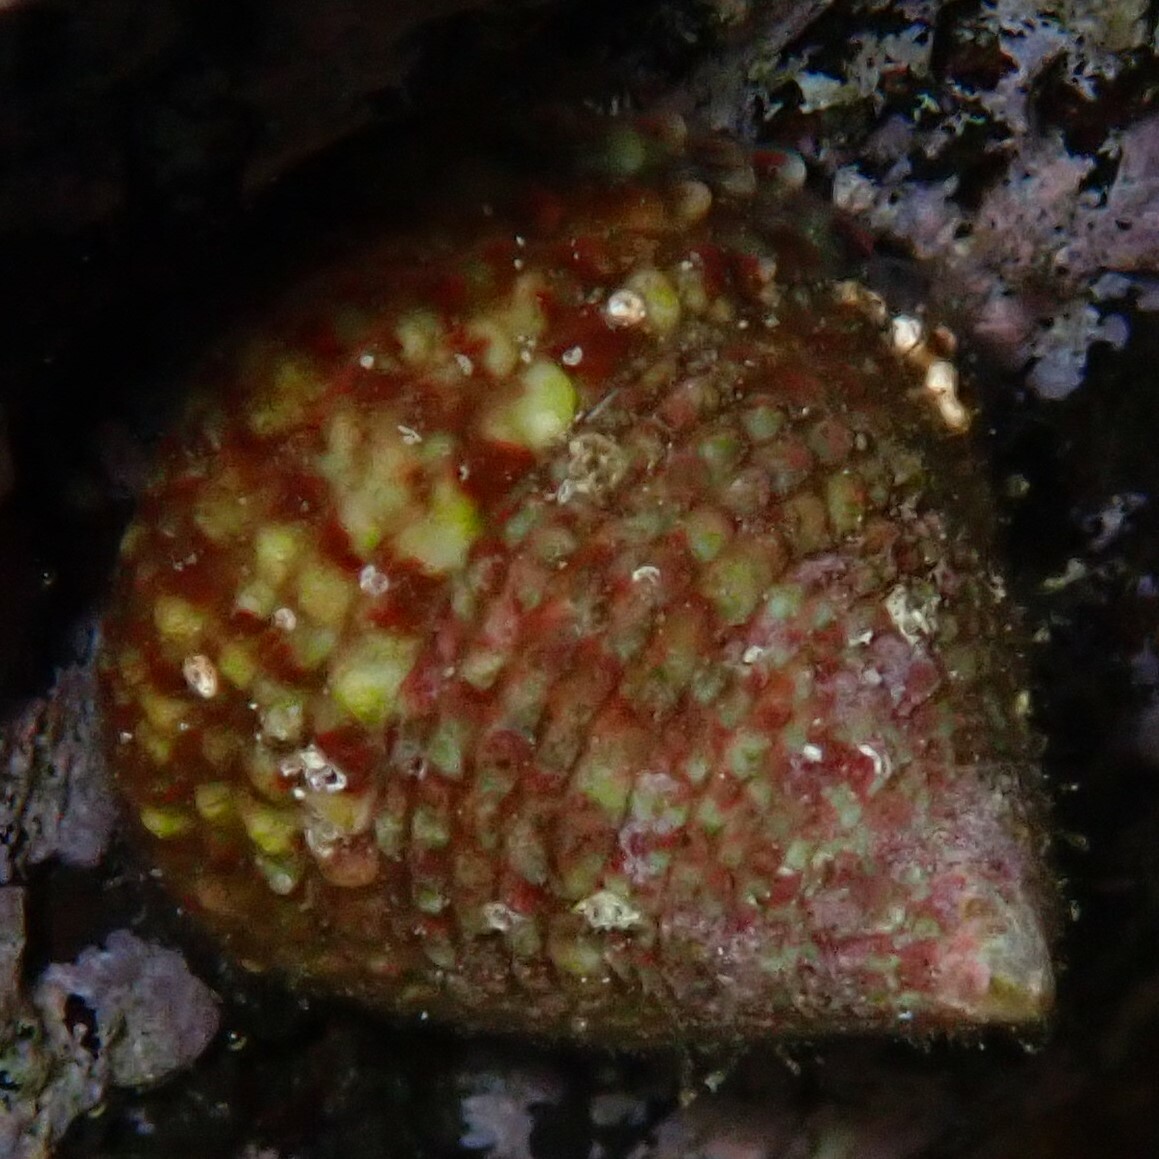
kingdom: Animalia
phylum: Mollusca
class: Gastropoda
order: Trochida
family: Trochidae
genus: Trochus
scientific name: Trochus intextus
